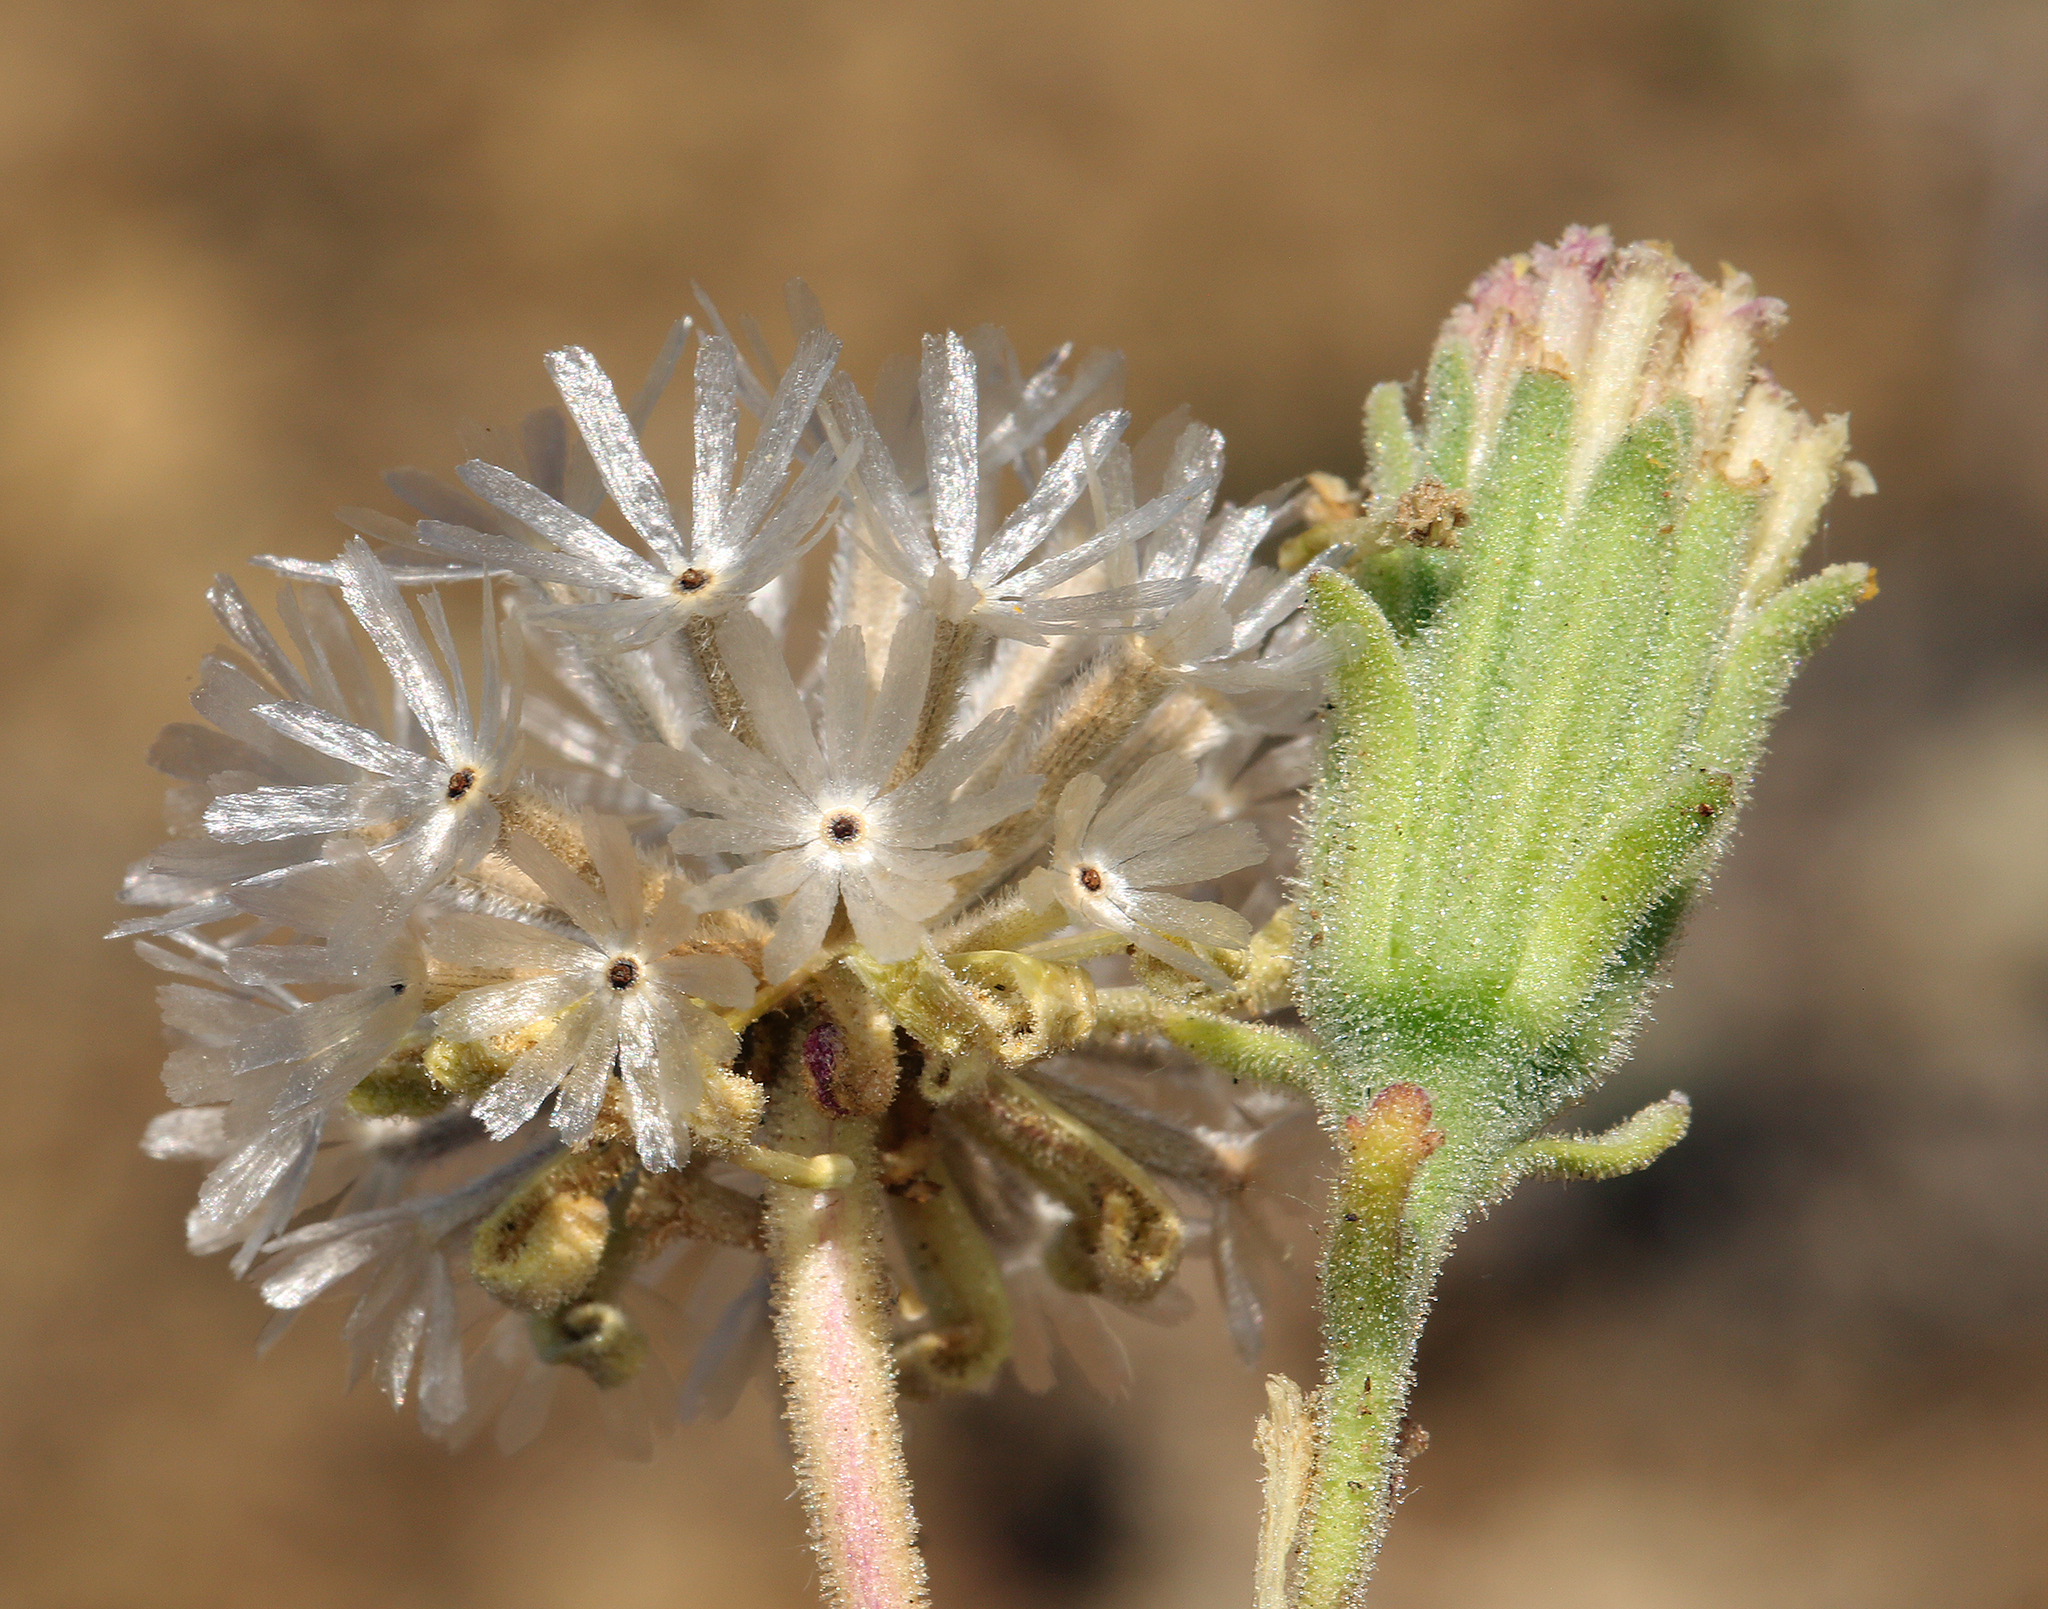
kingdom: Plantae
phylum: Tracheophyta
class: Magnoliopsida
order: Asterales
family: Asteraceae
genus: Chaenactis
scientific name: Chaenactis douglasii
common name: Hoary pincushion
